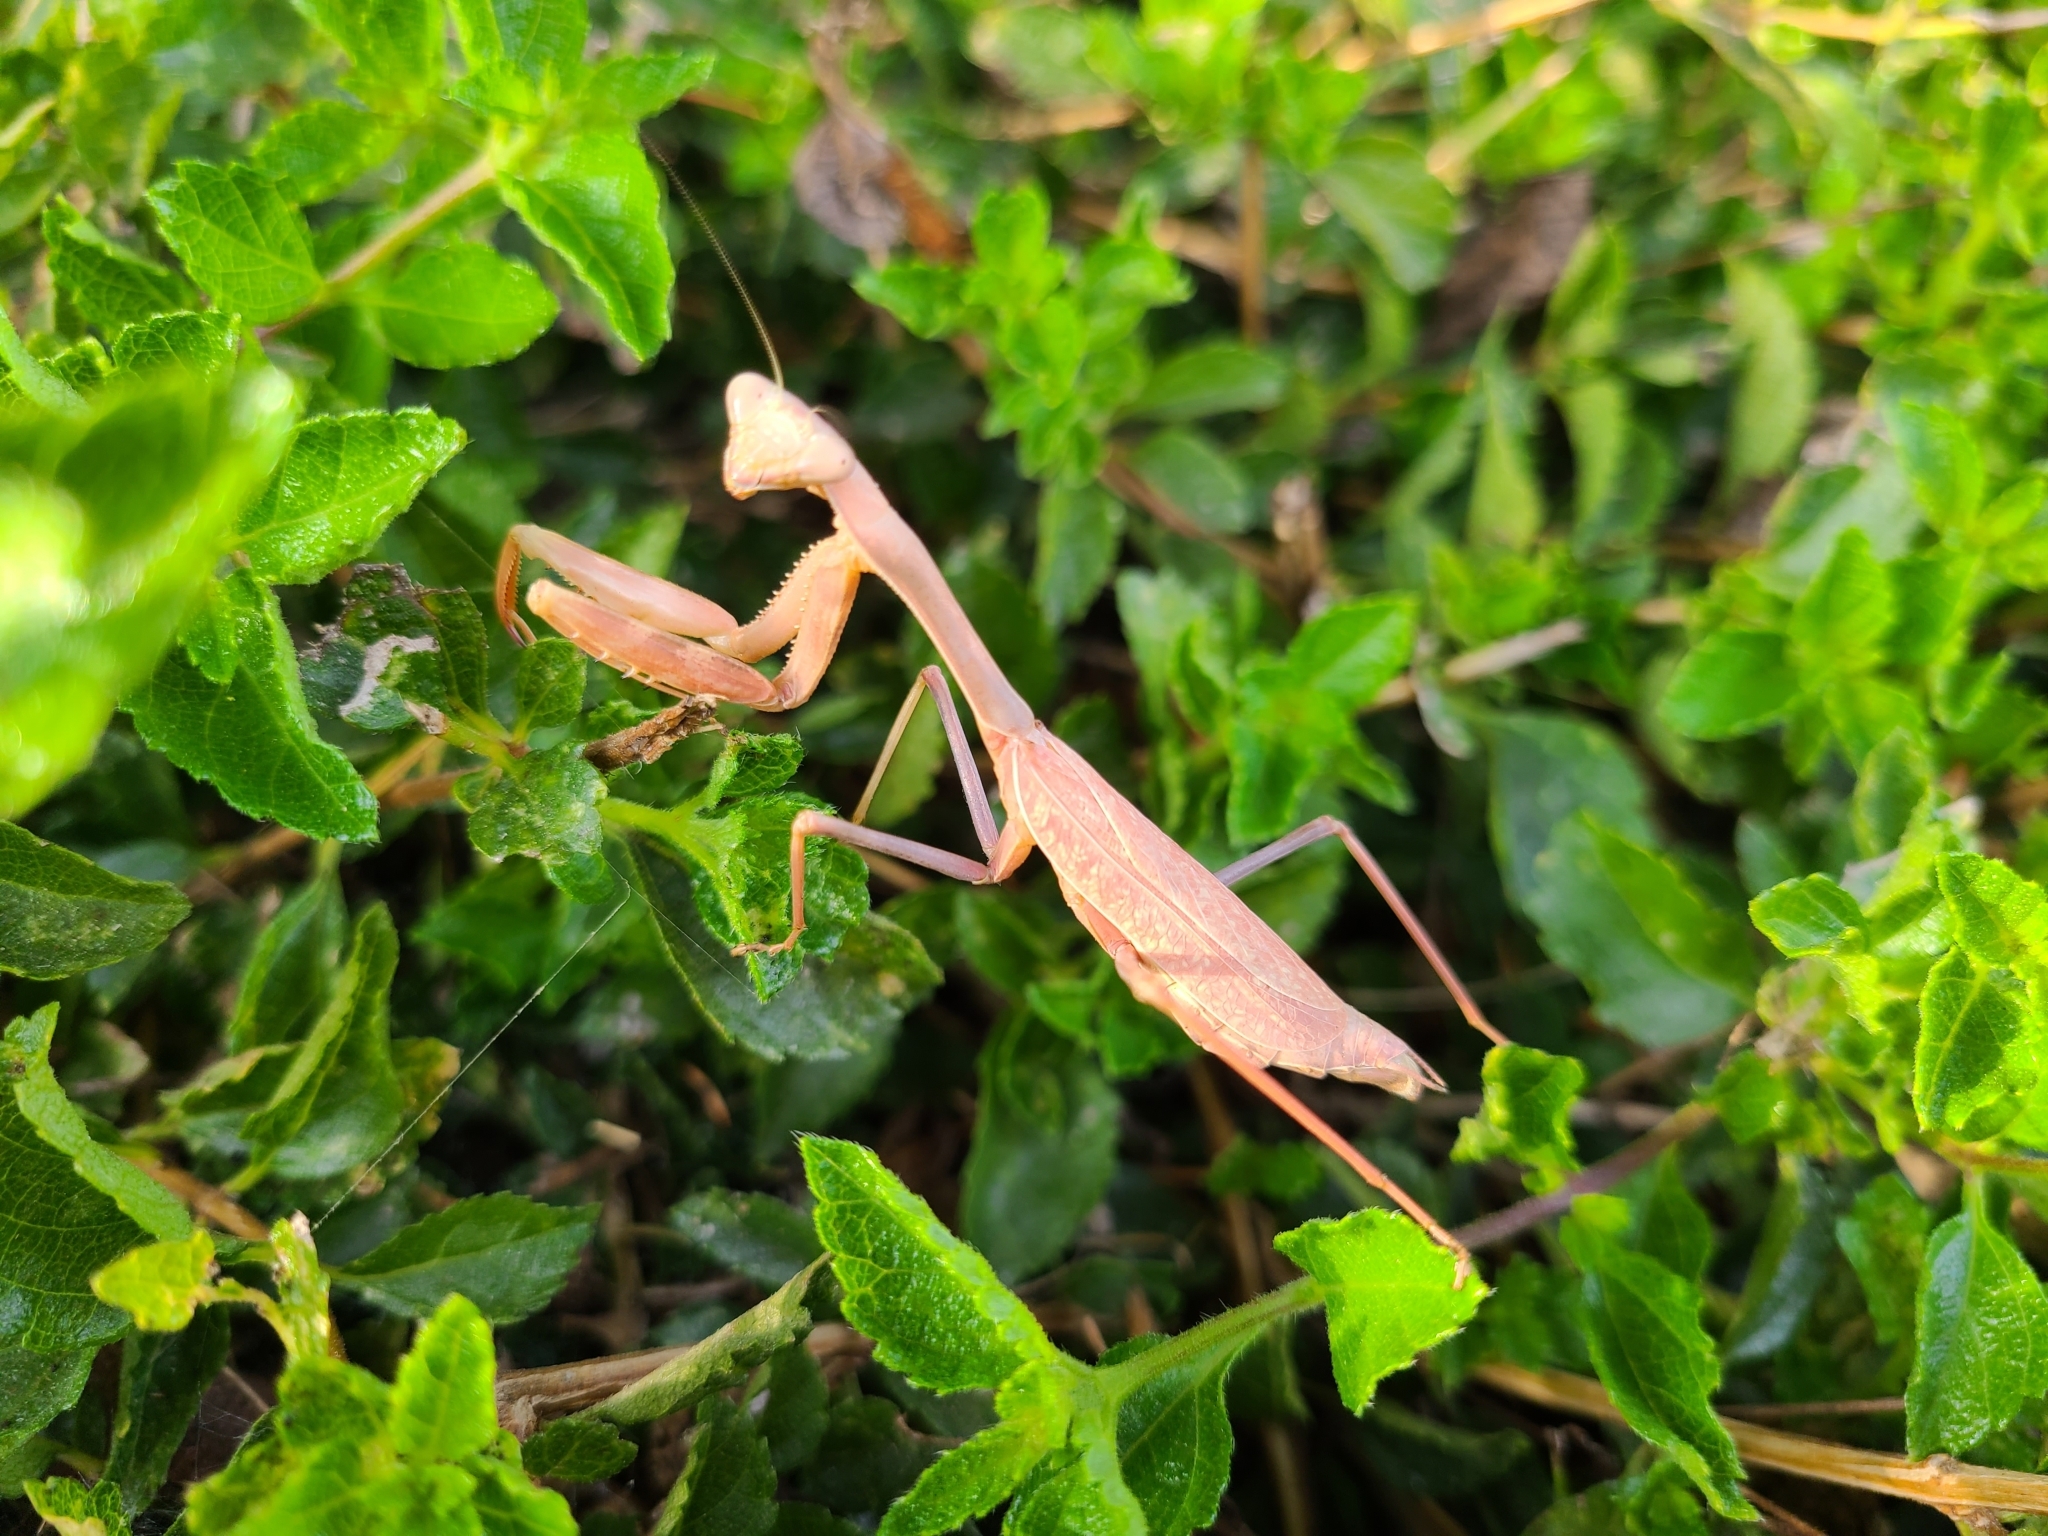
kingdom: Animalia
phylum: Arthropoda
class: Insecta
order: Mantodea
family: Mantidae
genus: Stagmomantis
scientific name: Stagmomantis limbata
